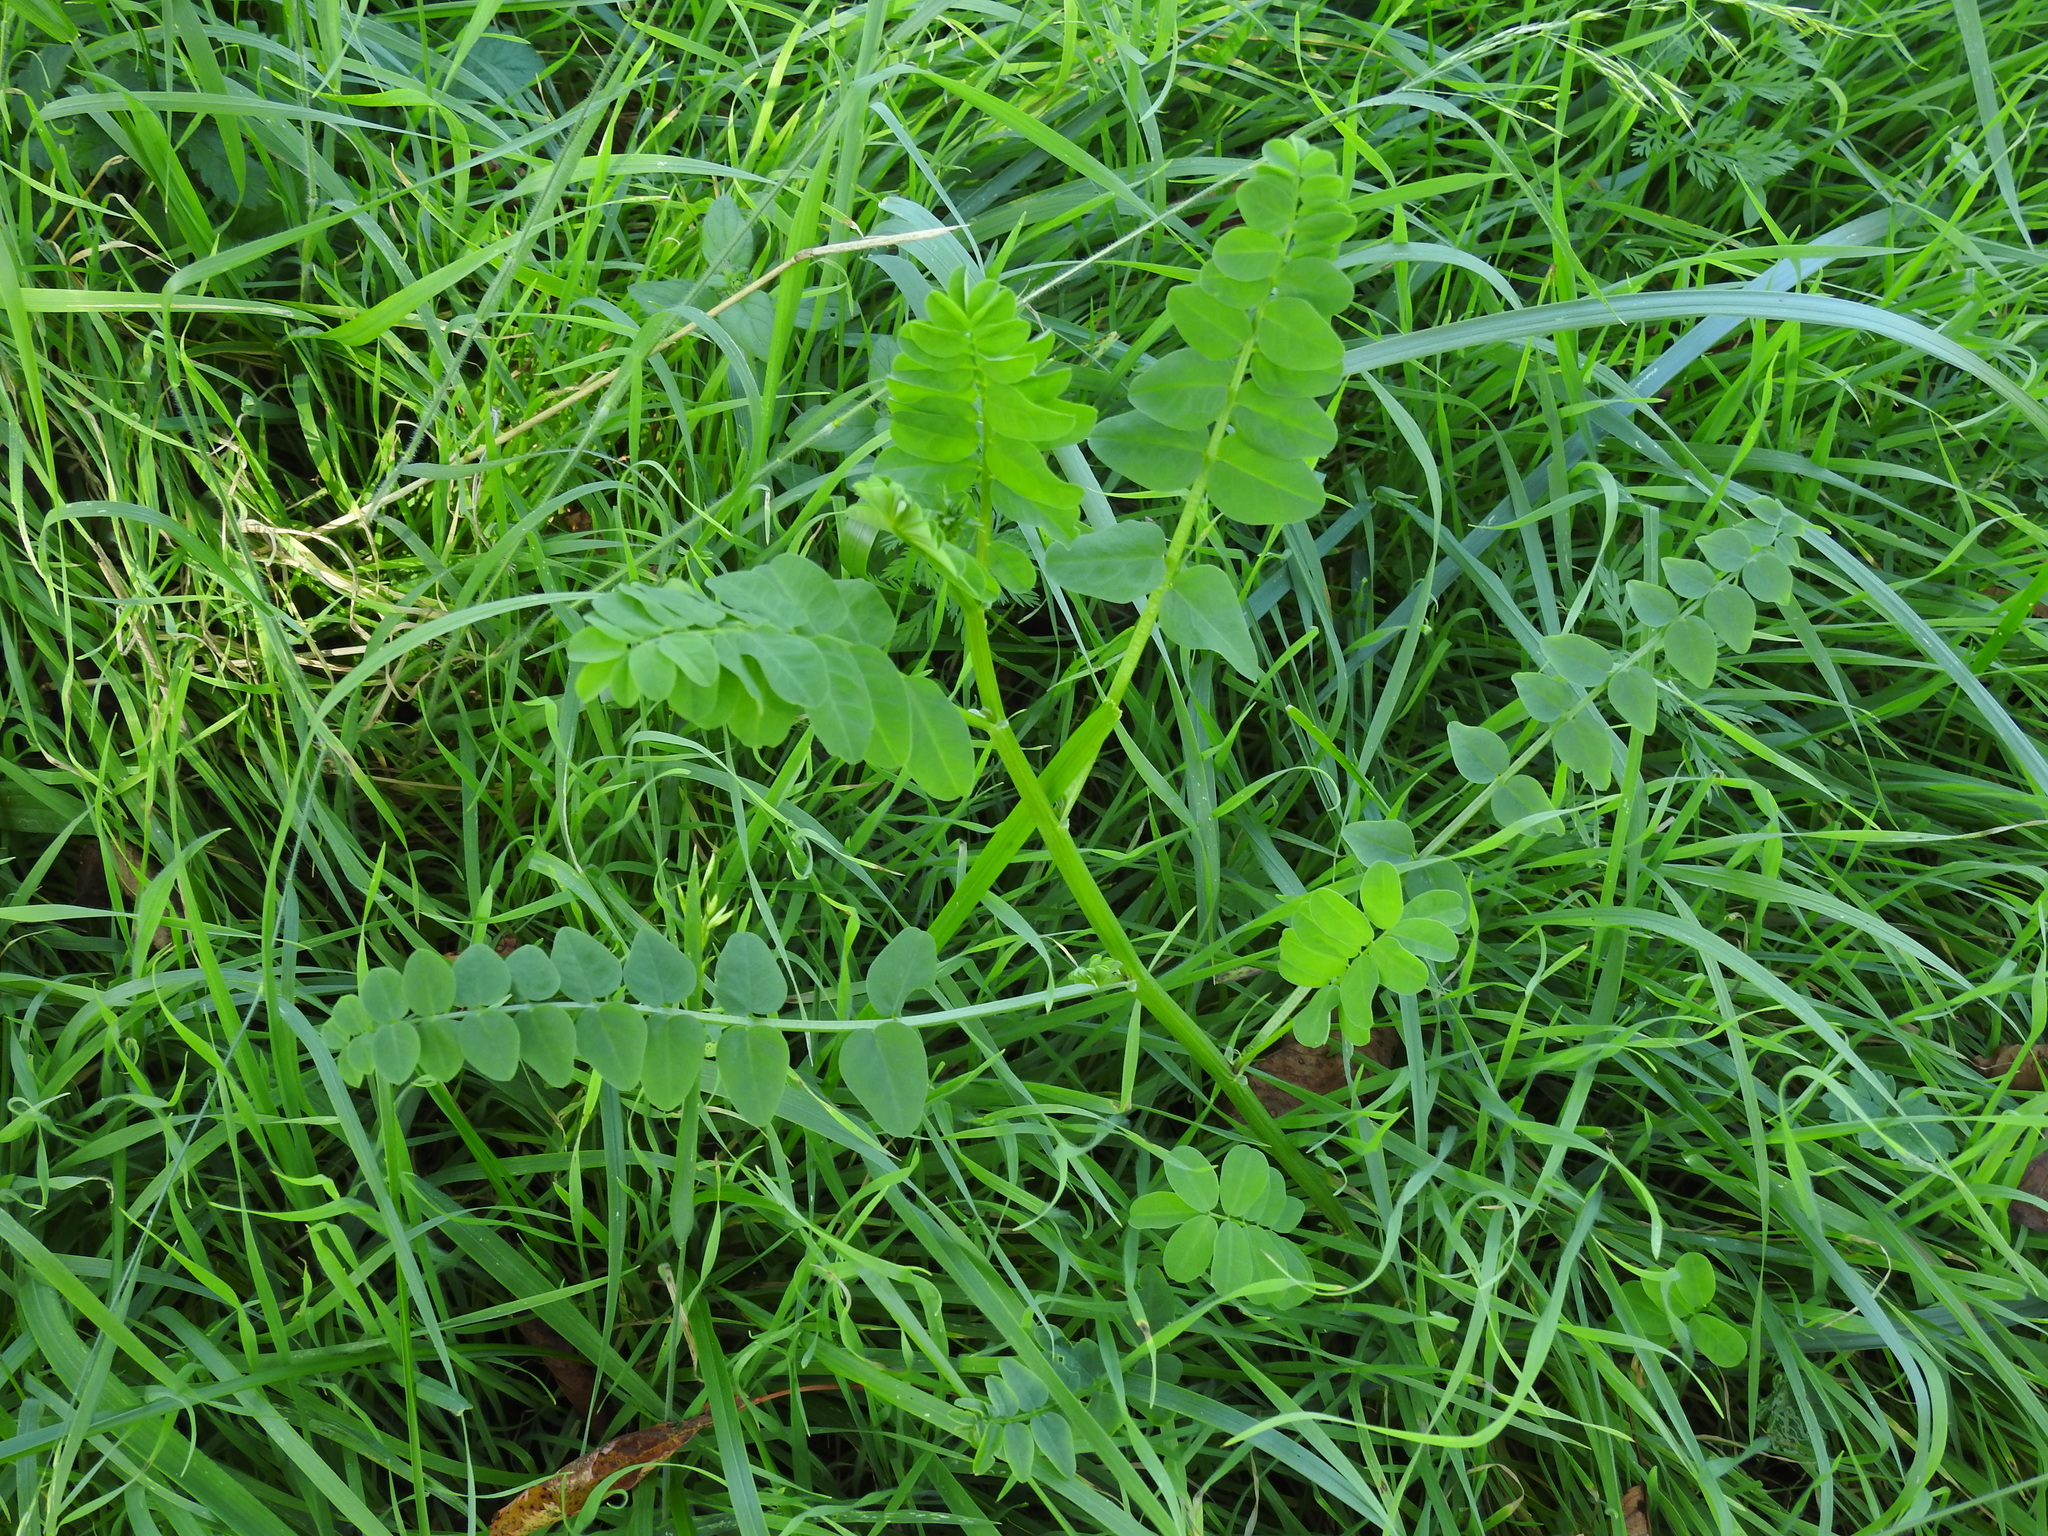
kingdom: Plantae
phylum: Tracheophyta
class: Magnoliopsida
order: Lamiales
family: Lamiaceae
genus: Salvia
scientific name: Salvia pratensis
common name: Meadow sage
